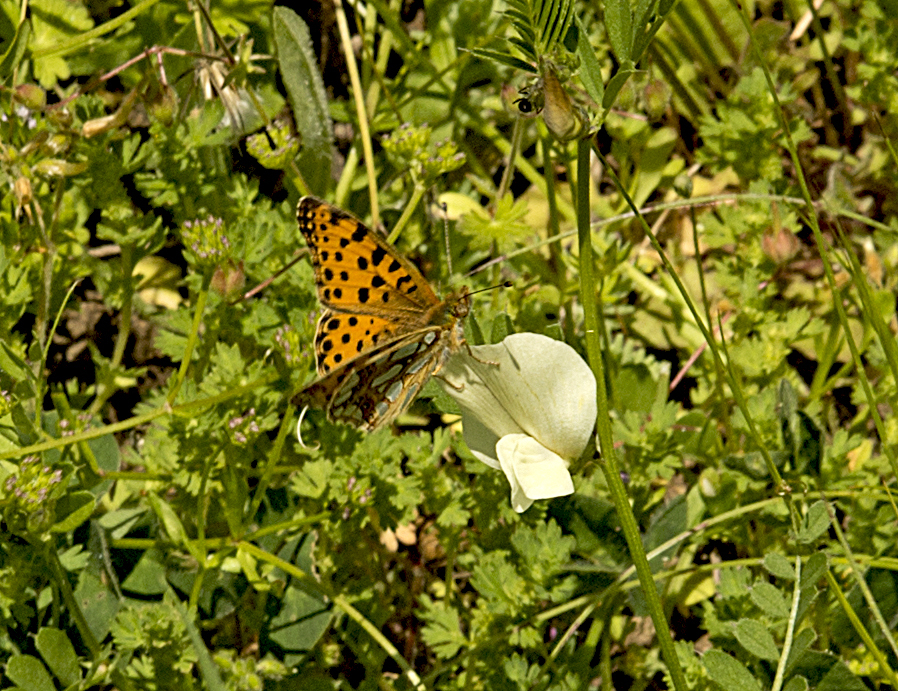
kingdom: Animalia
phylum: Arthropoda
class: Insecta
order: Lepidoptera
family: Nymphalidae
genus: Issoria
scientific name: Issoria lathonia
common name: Queen of spain fritillary
